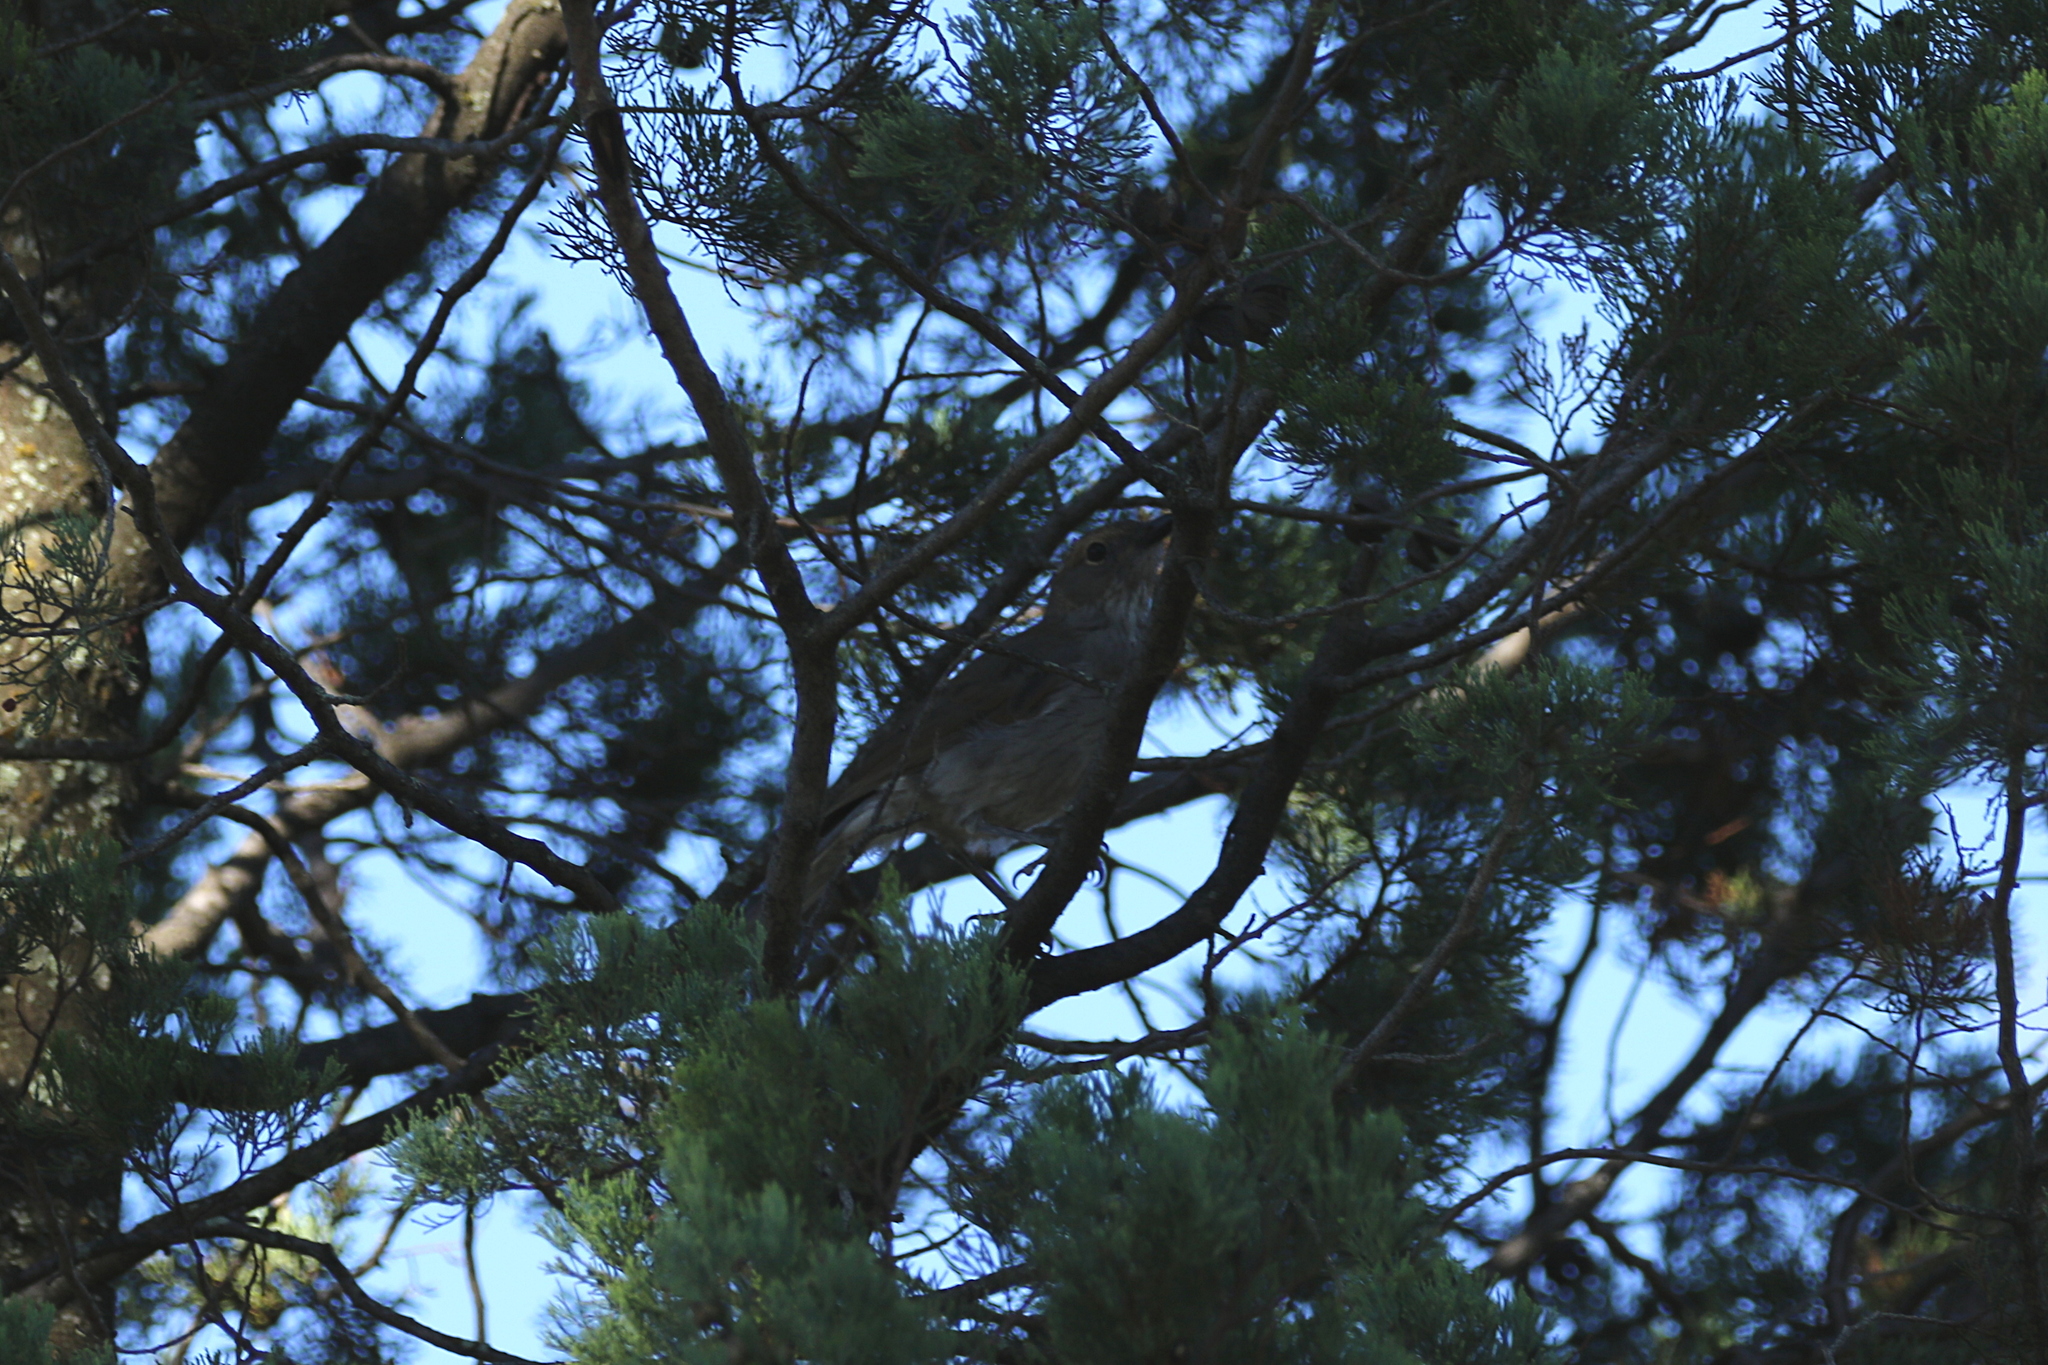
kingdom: Animalia
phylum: Chordata
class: Aves
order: Passeriformes
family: Pachycephalidae
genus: Colluricincla
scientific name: Colluricincla harmonica
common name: Grey shrikethrush
